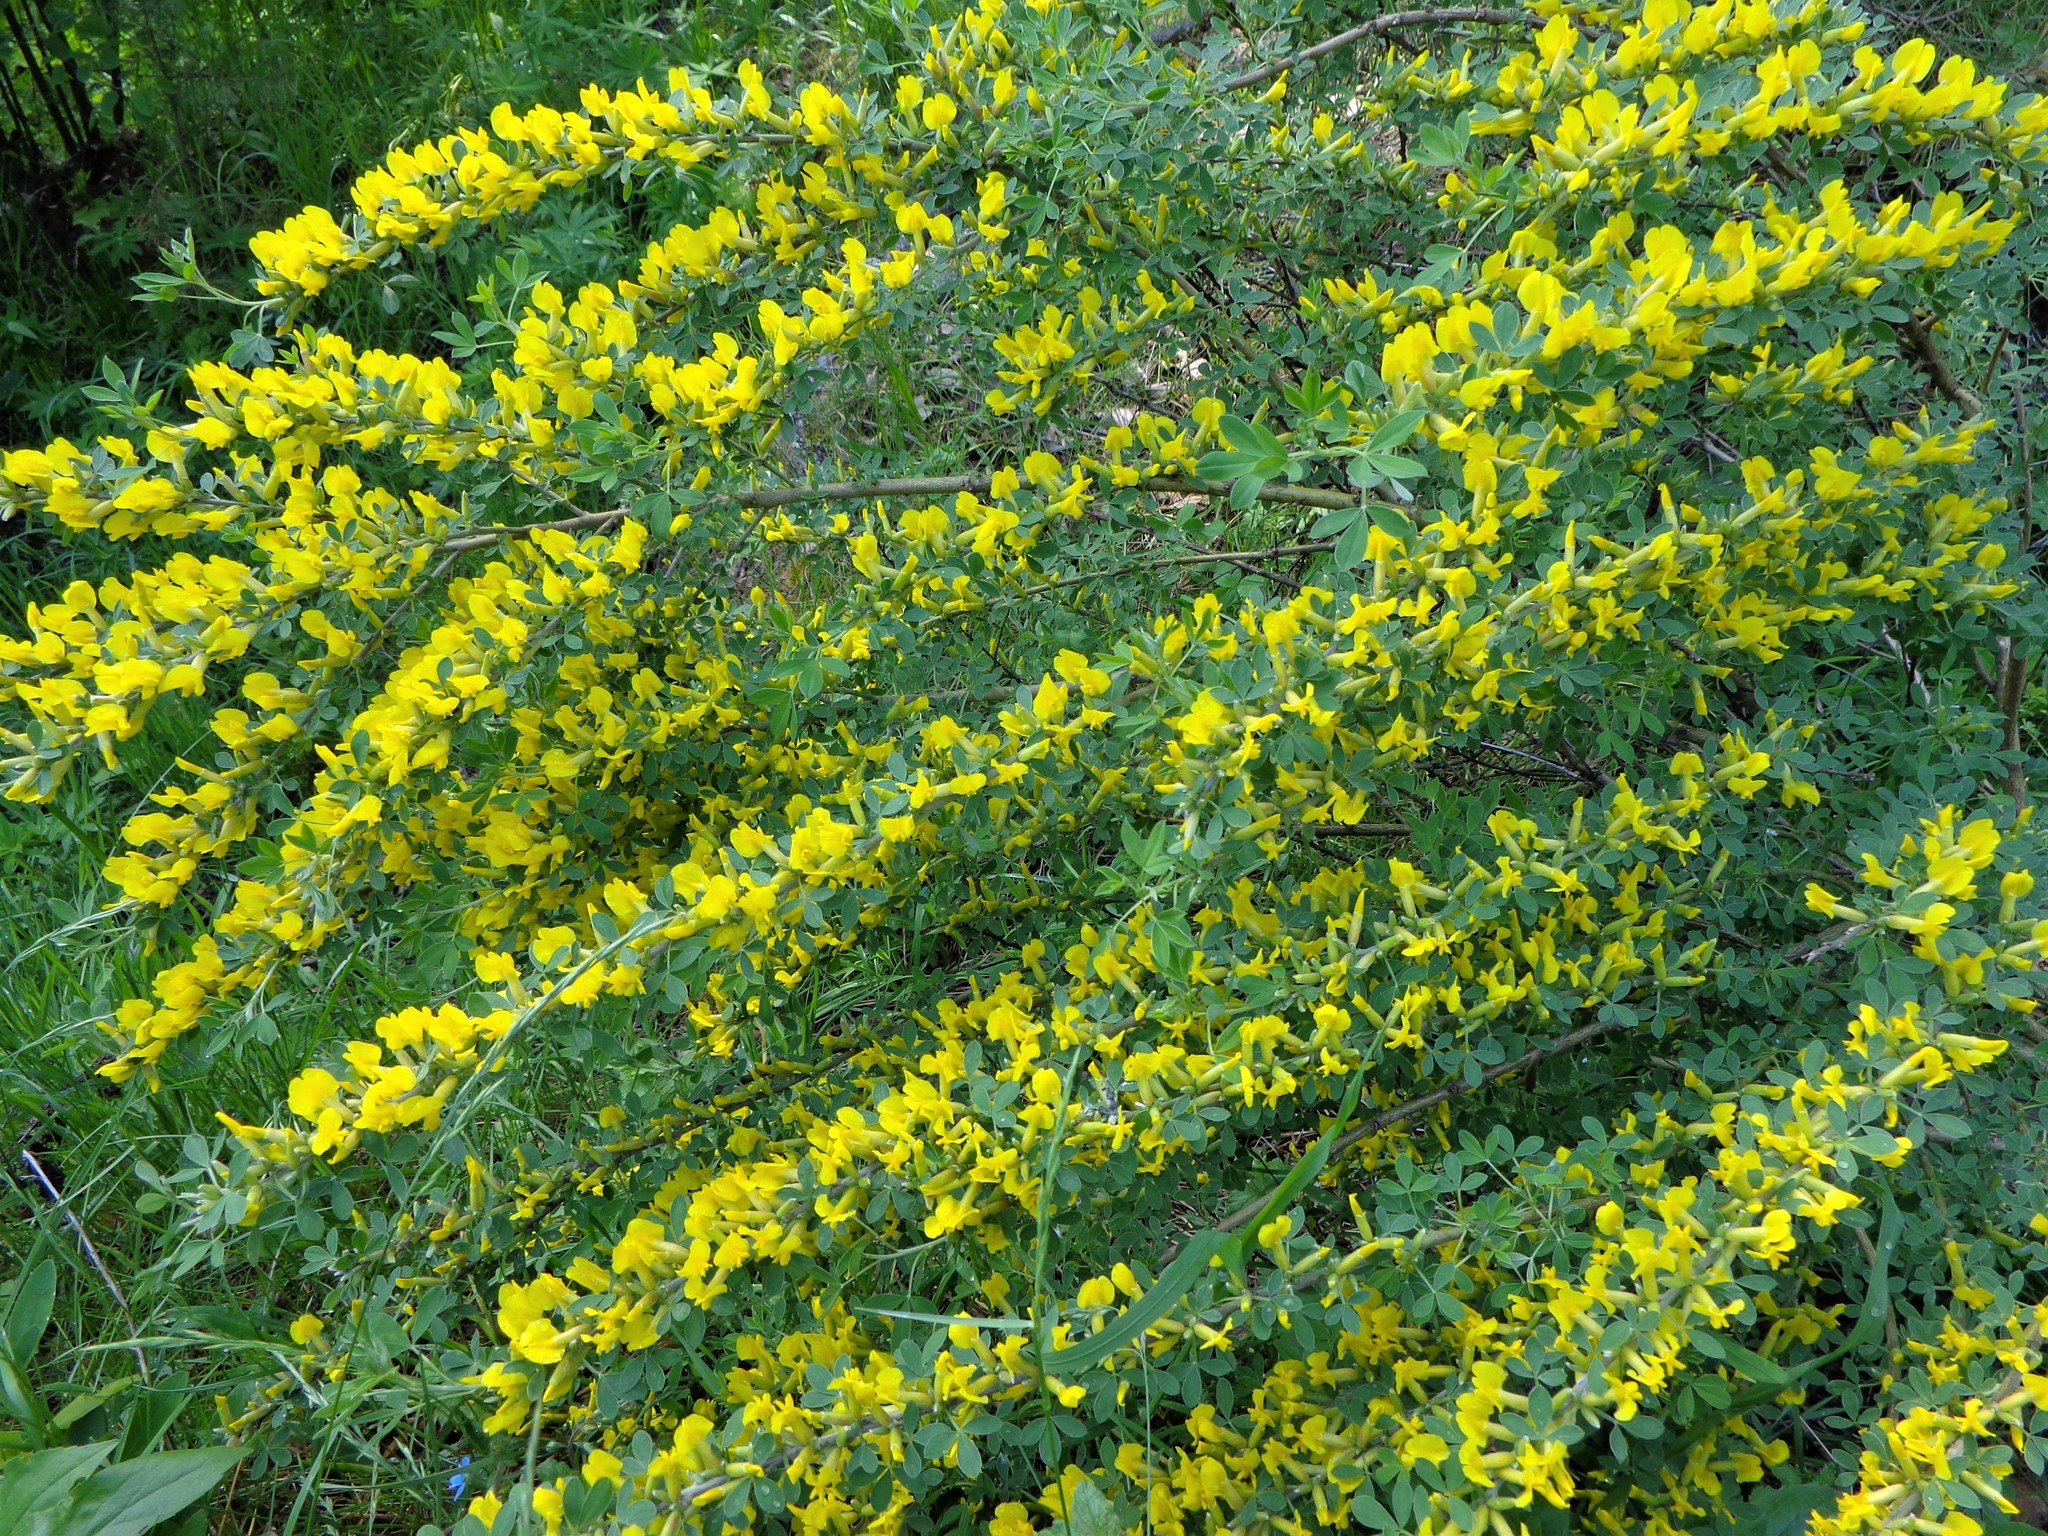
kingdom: Plantae
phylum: Tracheophyta
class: Magnoliopsida
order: Fabales
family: Fabaceae
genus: Chamaecytisus
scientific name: Chamaecytisus ruthenicus
